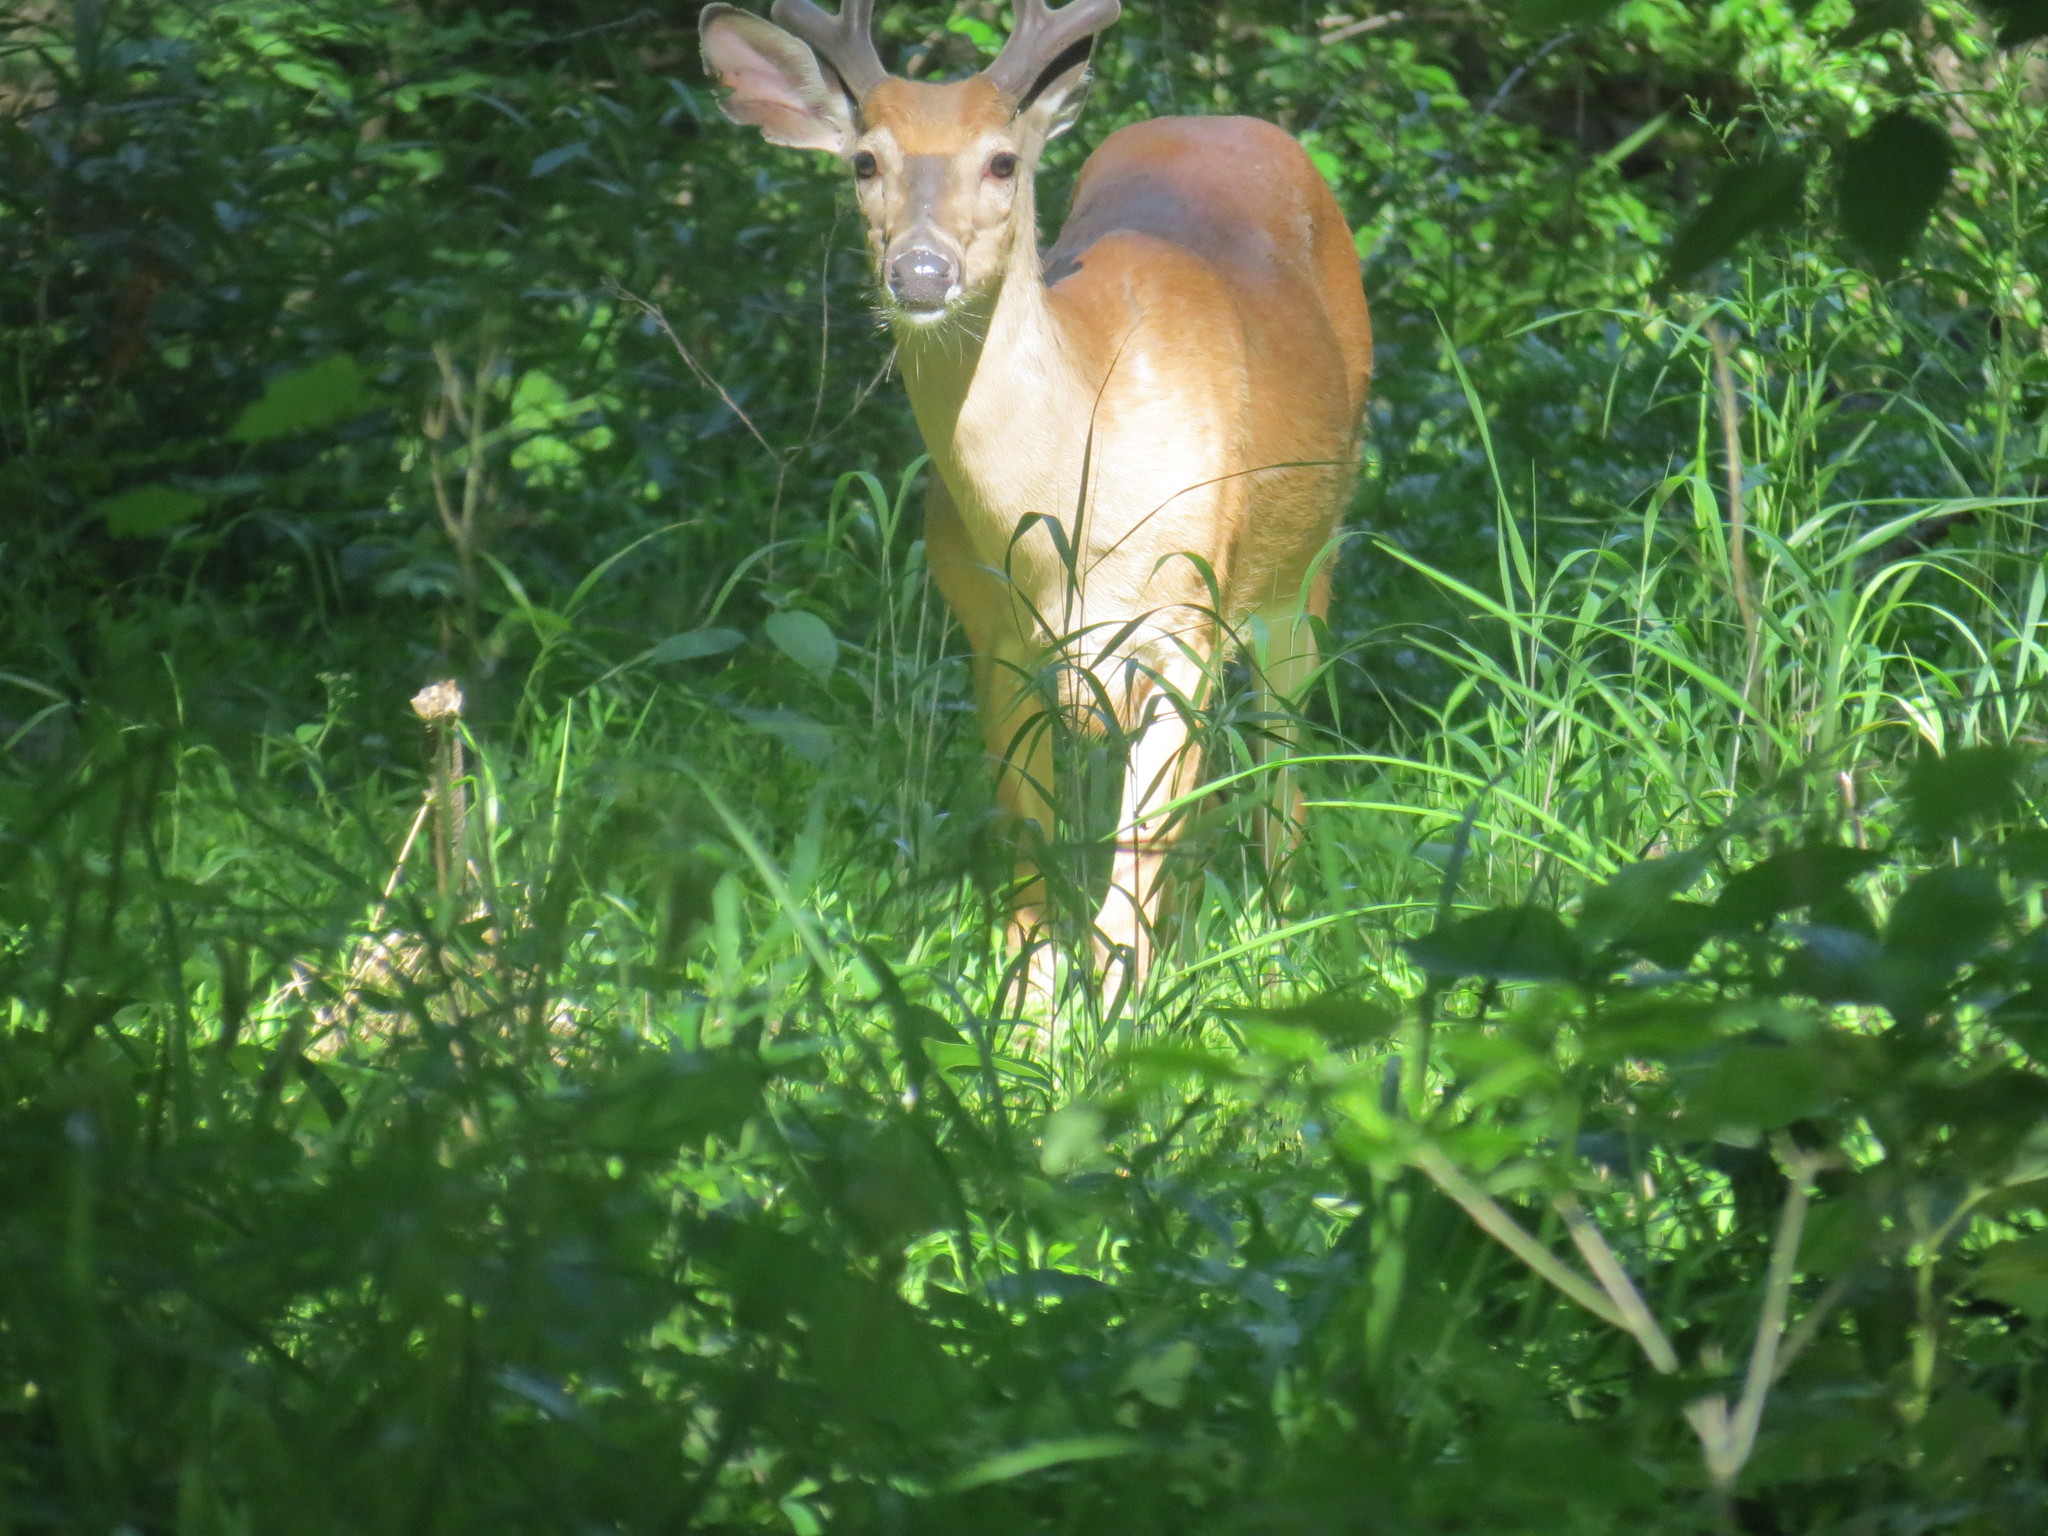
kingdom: Animalia
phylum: Chordata
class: Mammalia
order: Artiodactyla
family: Cervidae
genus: Odocoileus
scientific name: Odocoileus virginianus
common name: White-tailed deer
